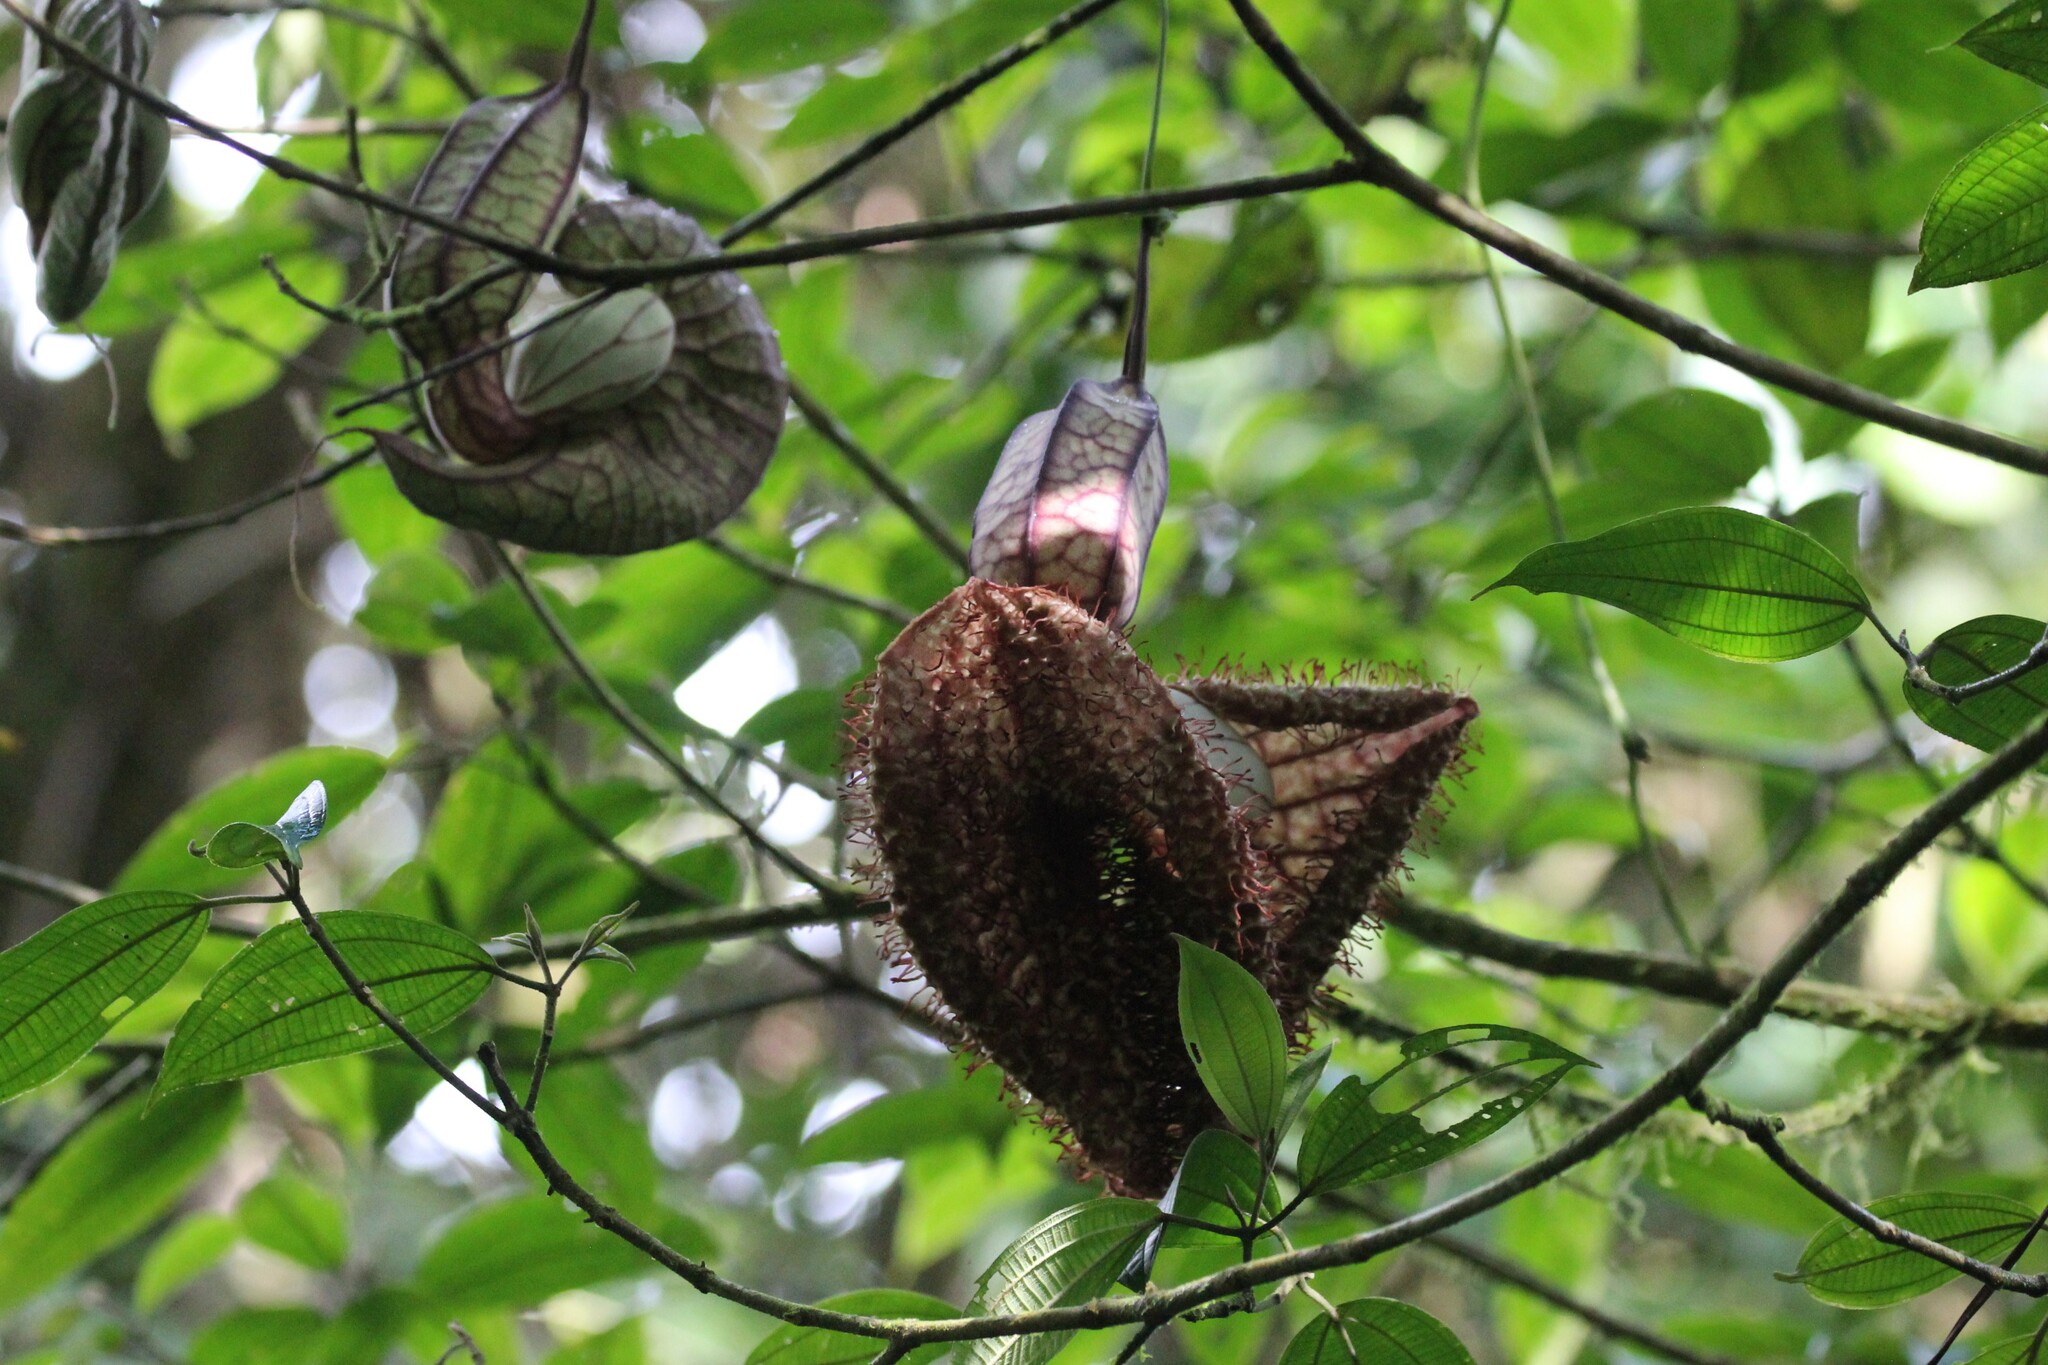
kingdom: Plantae
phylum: Tracheophyta
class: Magnoliopsida
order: Piperales
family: Aristolochiaceae
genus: Aristolochia
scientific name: Aristolochia grandiflora
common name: Pelicanflower
